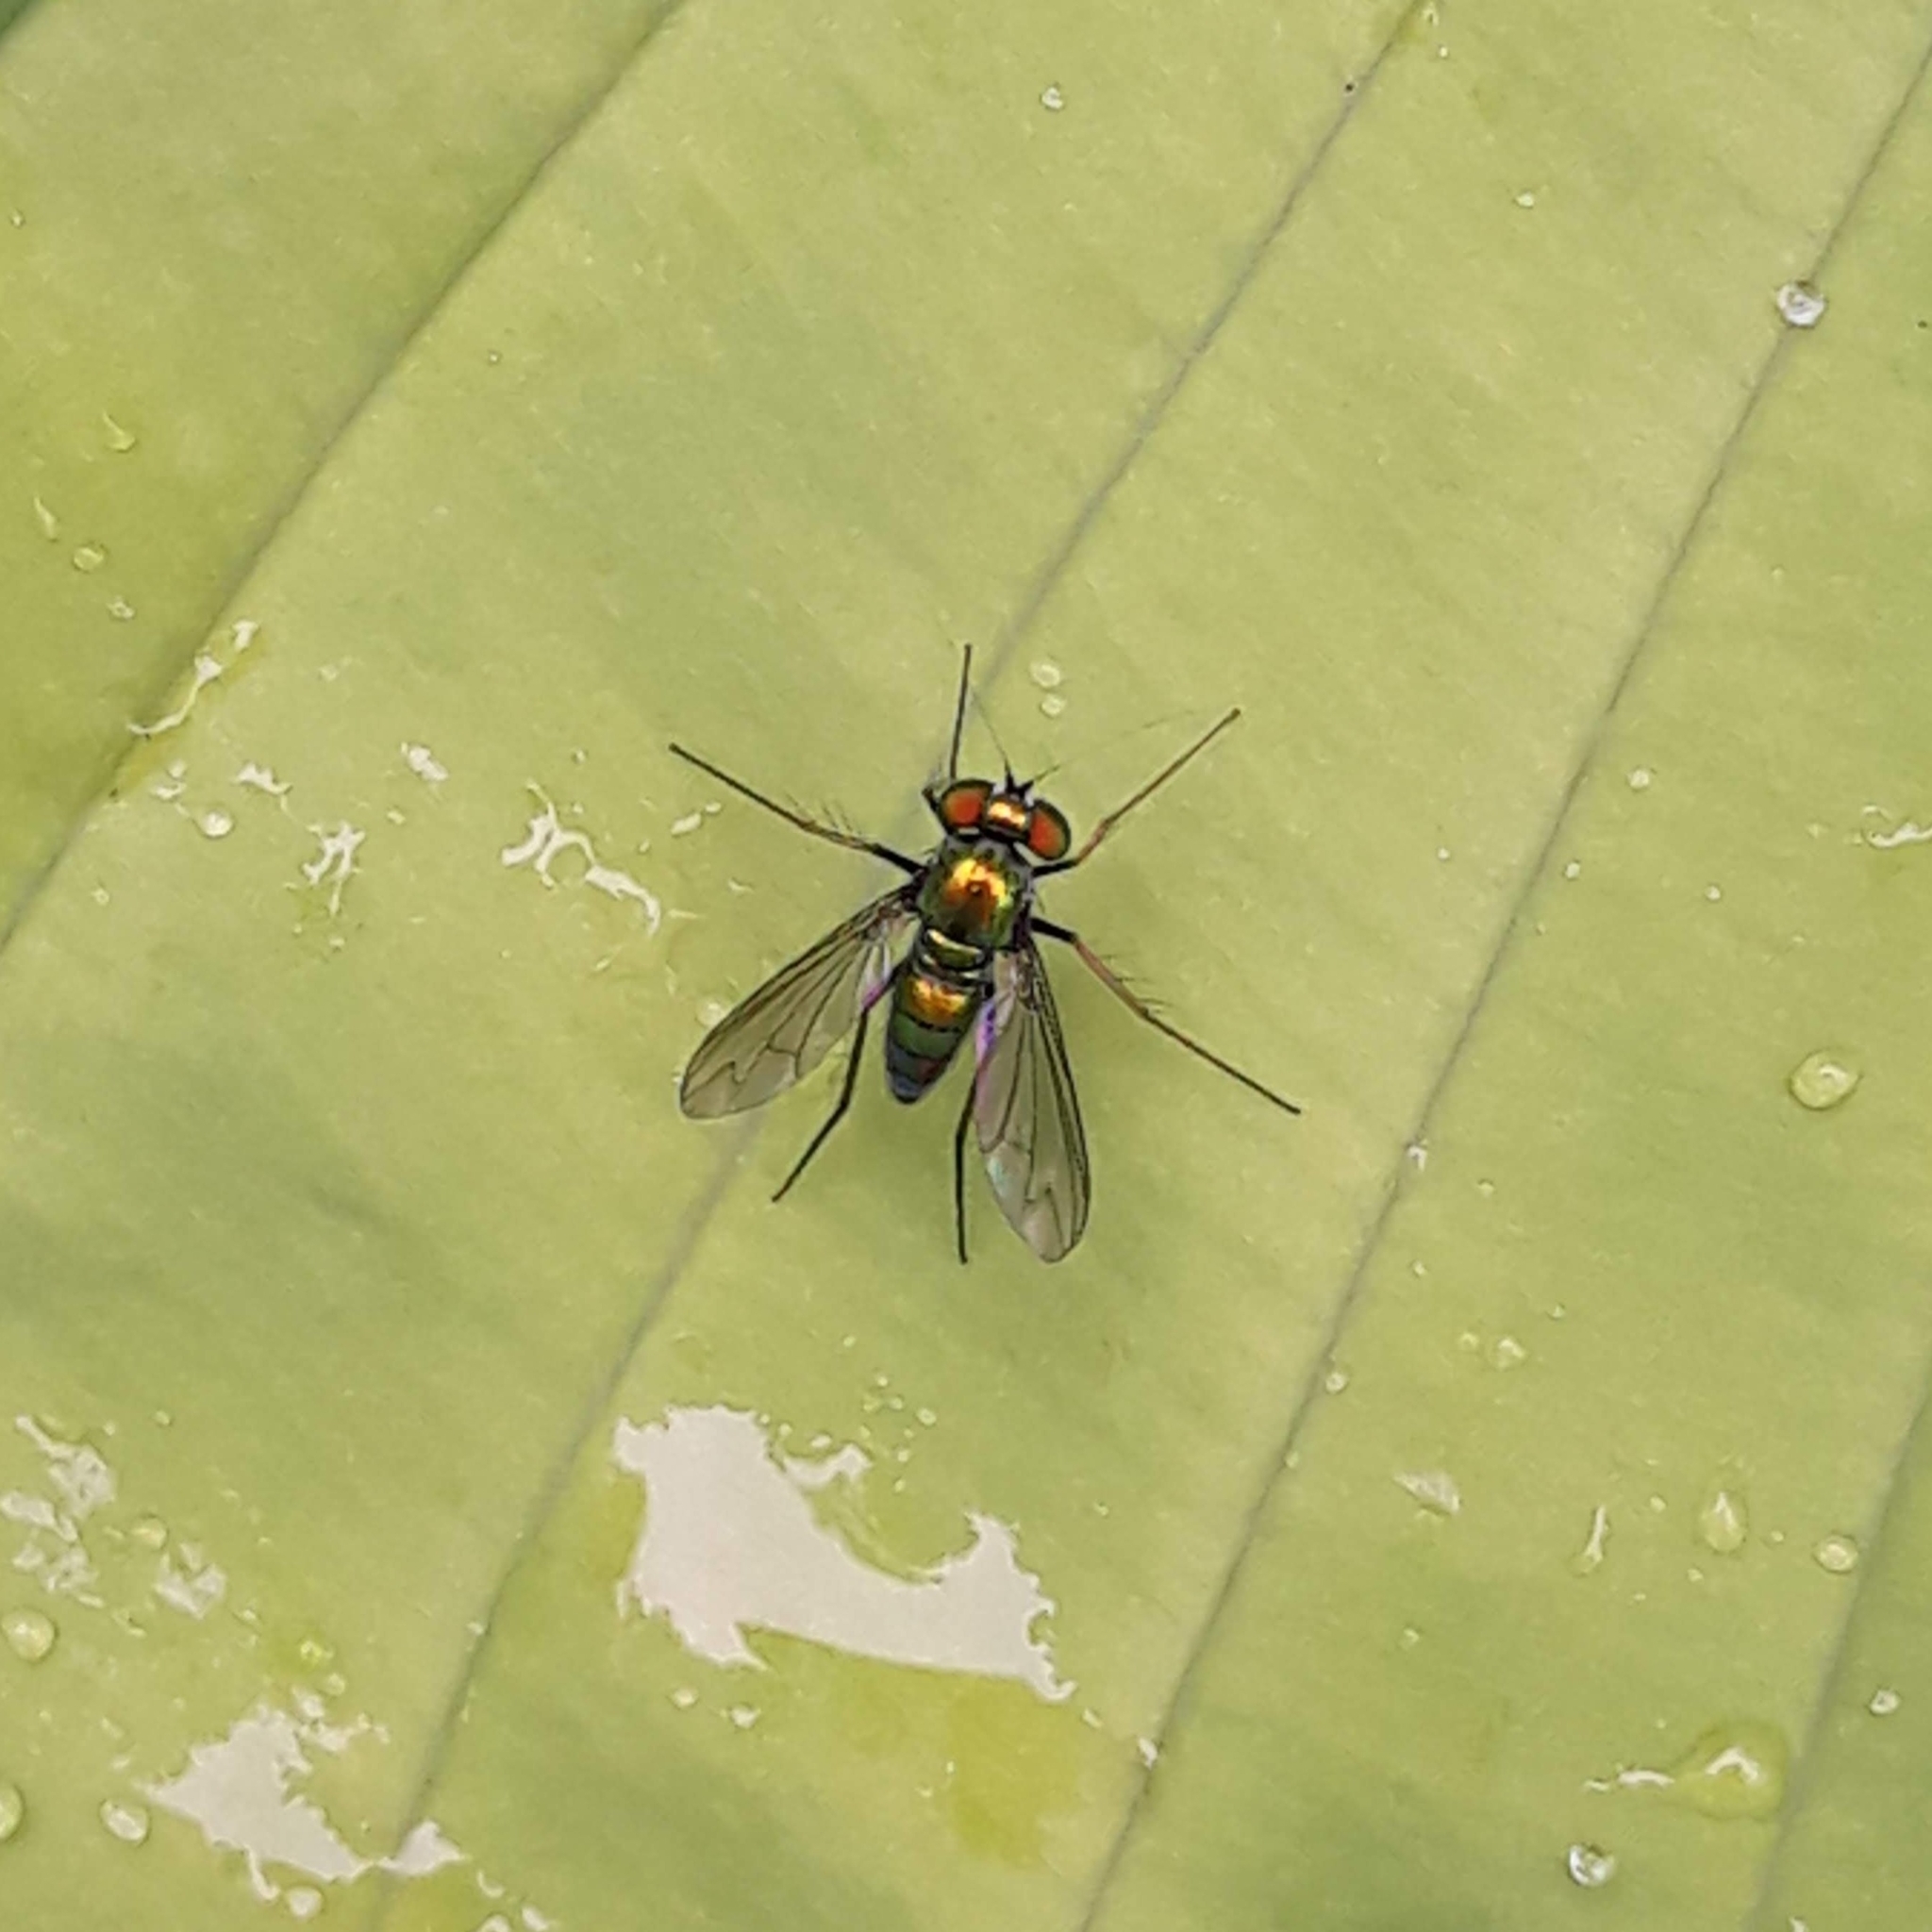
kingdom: Animalia
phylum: Arthropoda
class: Insecta
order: Diptera
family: Dolichopodidae
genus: Condylostylus
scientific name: Condylostylus
